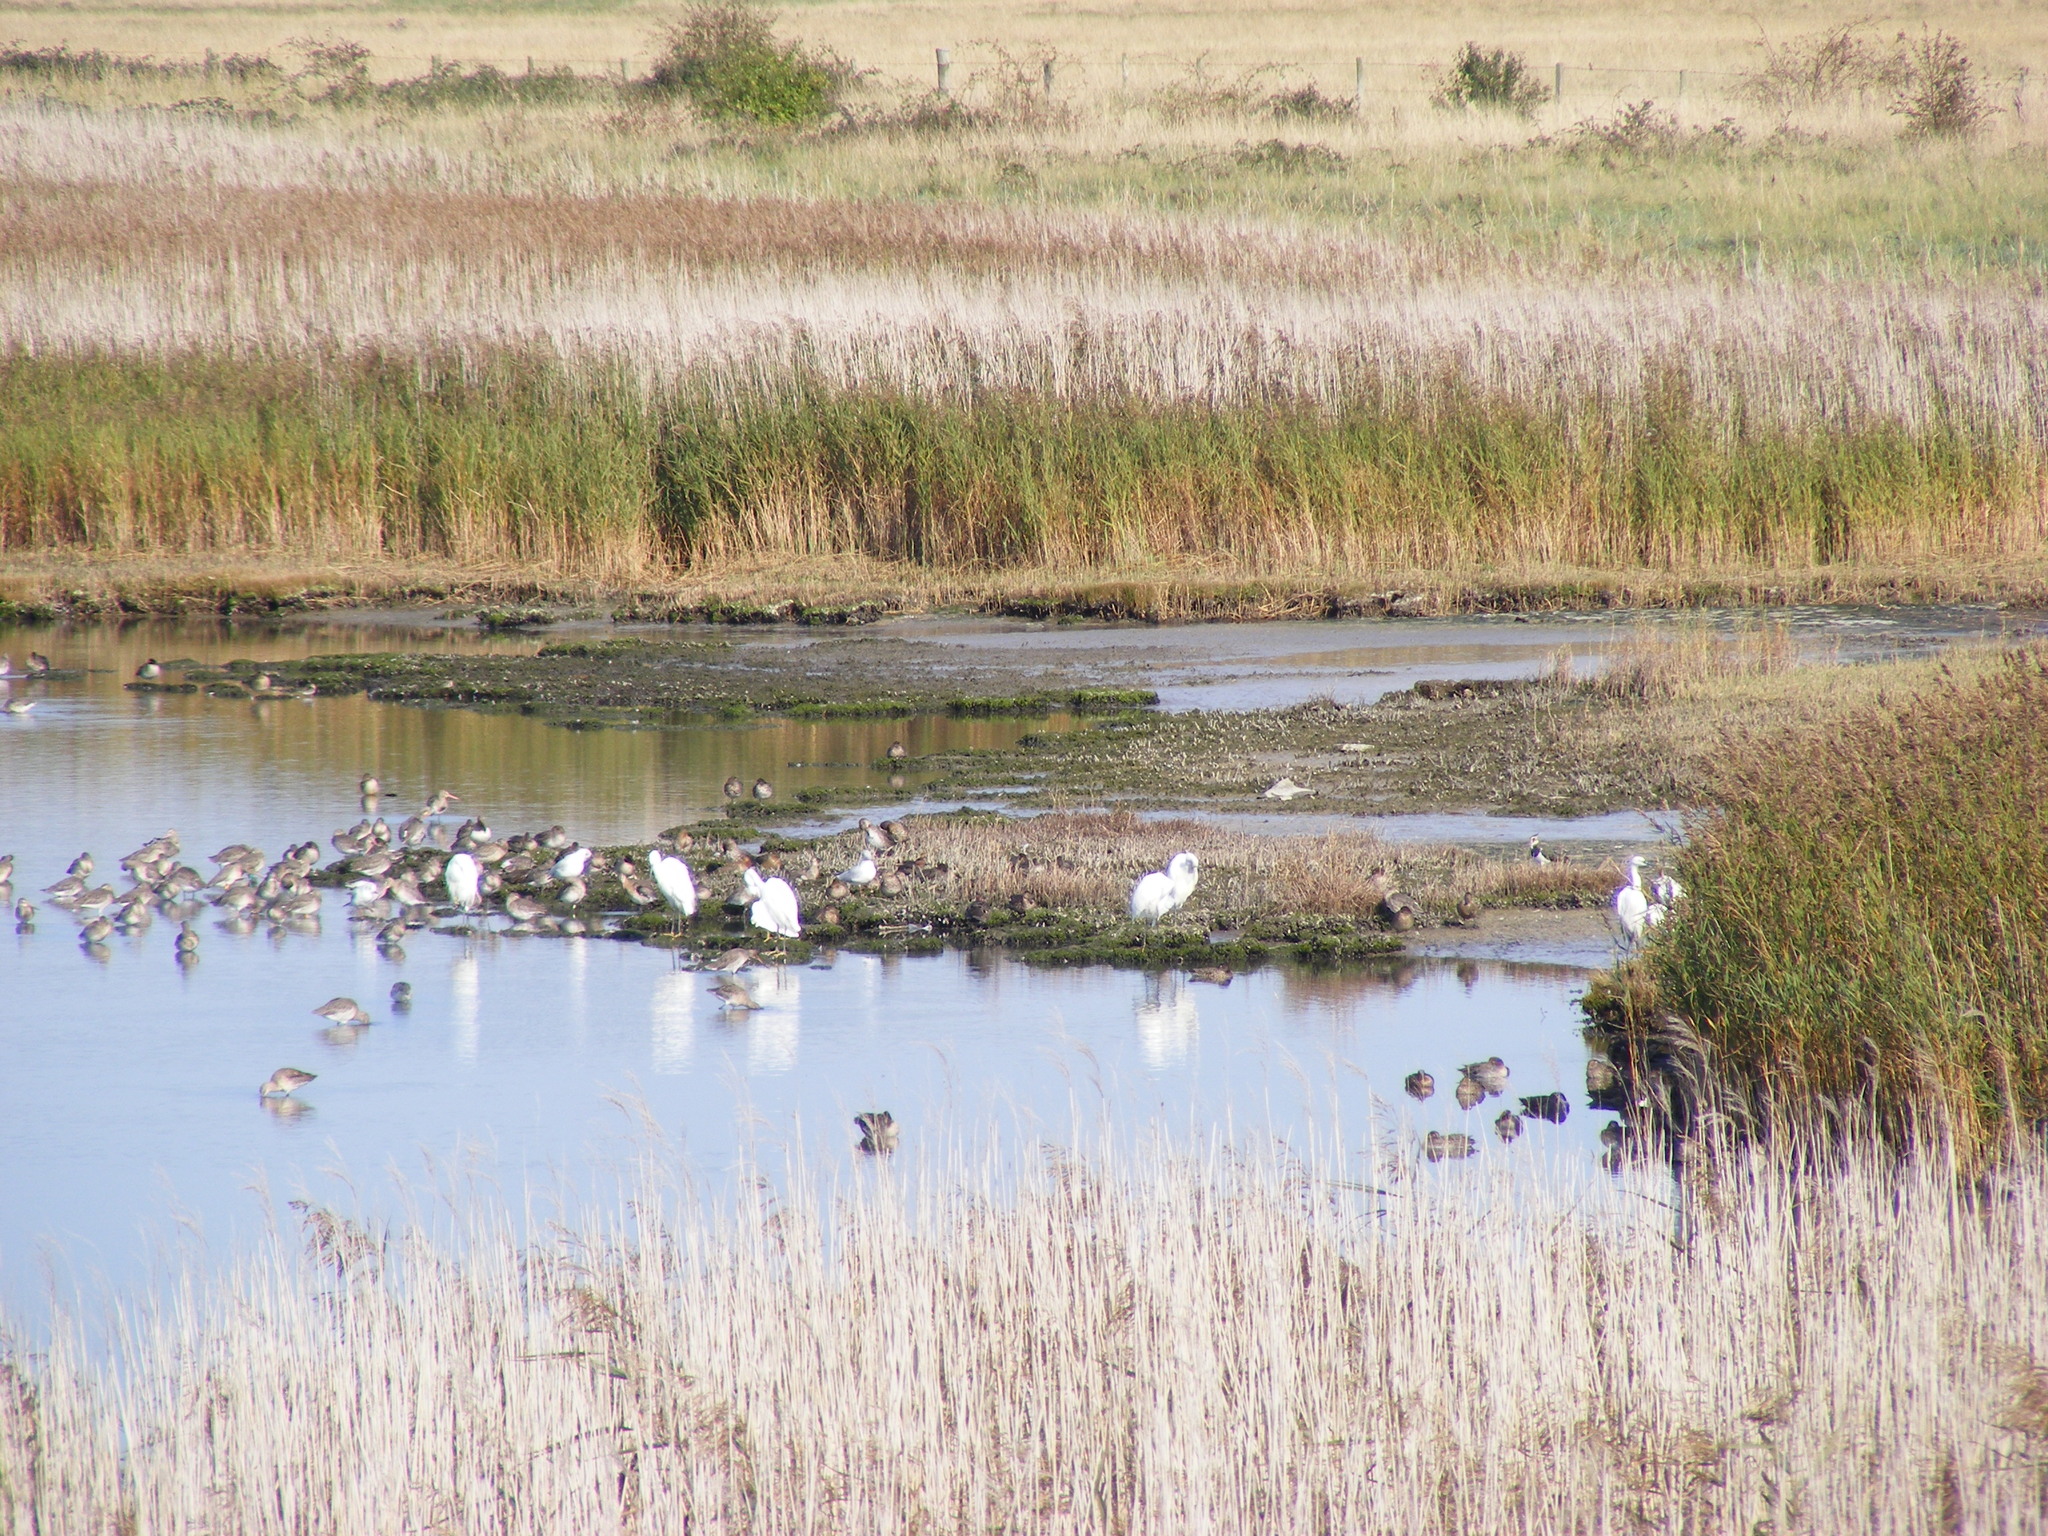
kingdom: Animalia
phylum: Chordata
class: Aves
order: Pelecaniformes
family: Ardeidae
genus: Egretta
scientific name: Egretta garzetta
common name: Little egret
